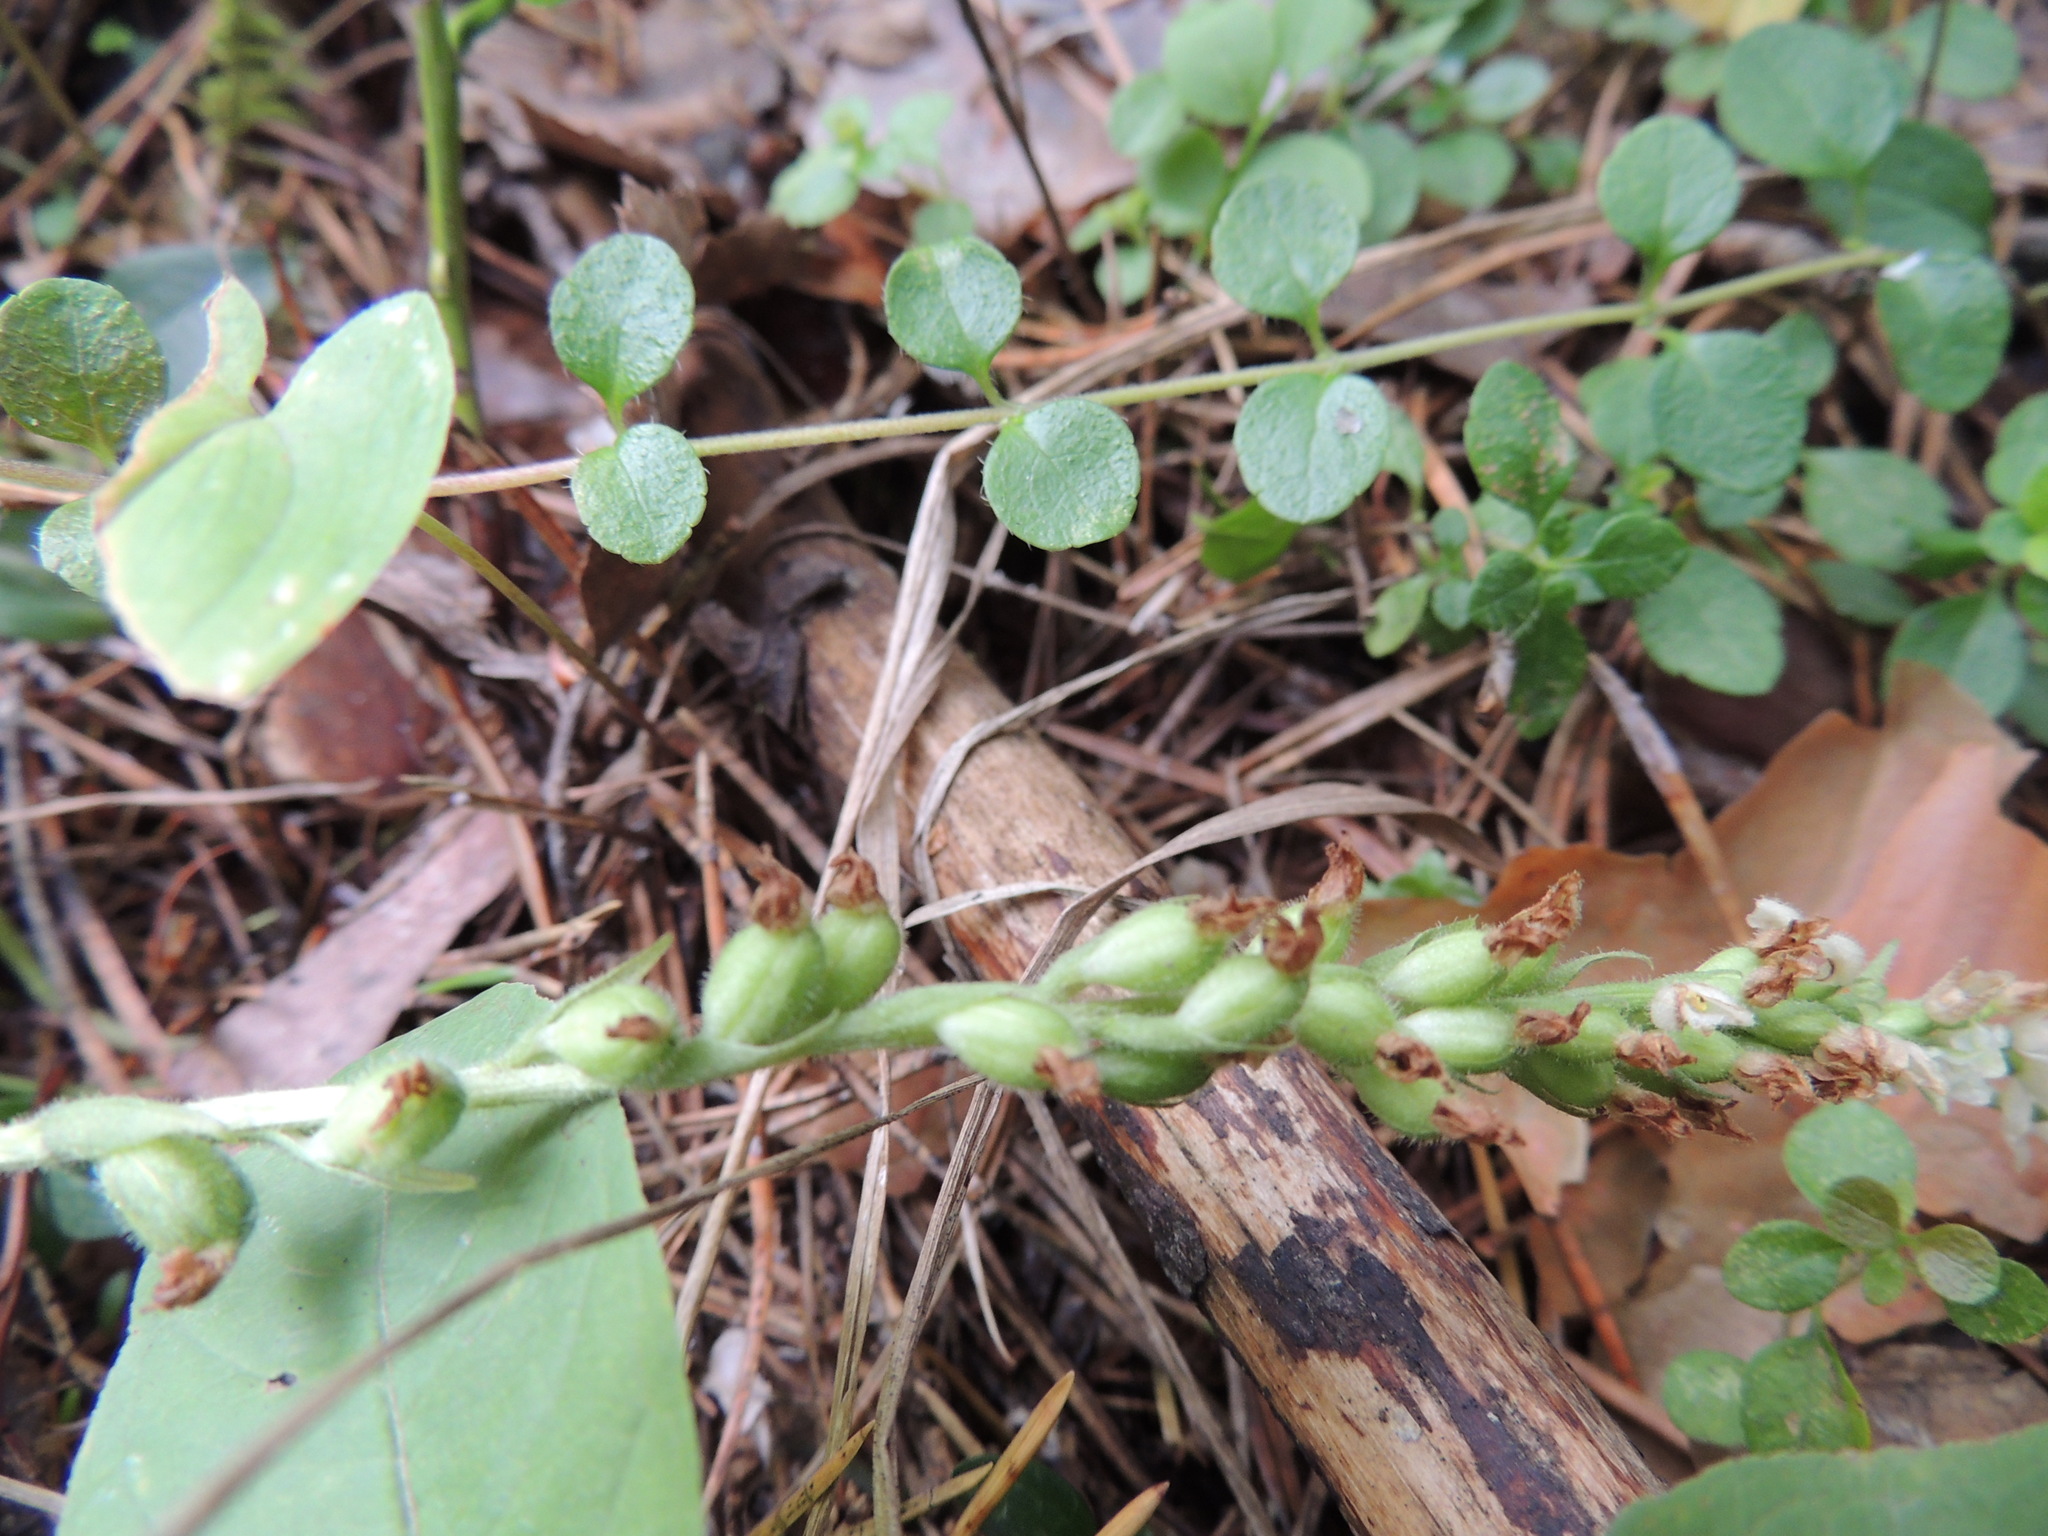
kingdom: Plantae
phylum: Tracheophyta
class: Liliopsida
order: Asparagales
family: Orchidaceae
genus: Goodyera
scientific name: Goodyera repens
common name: Creeping lady's-tresses
